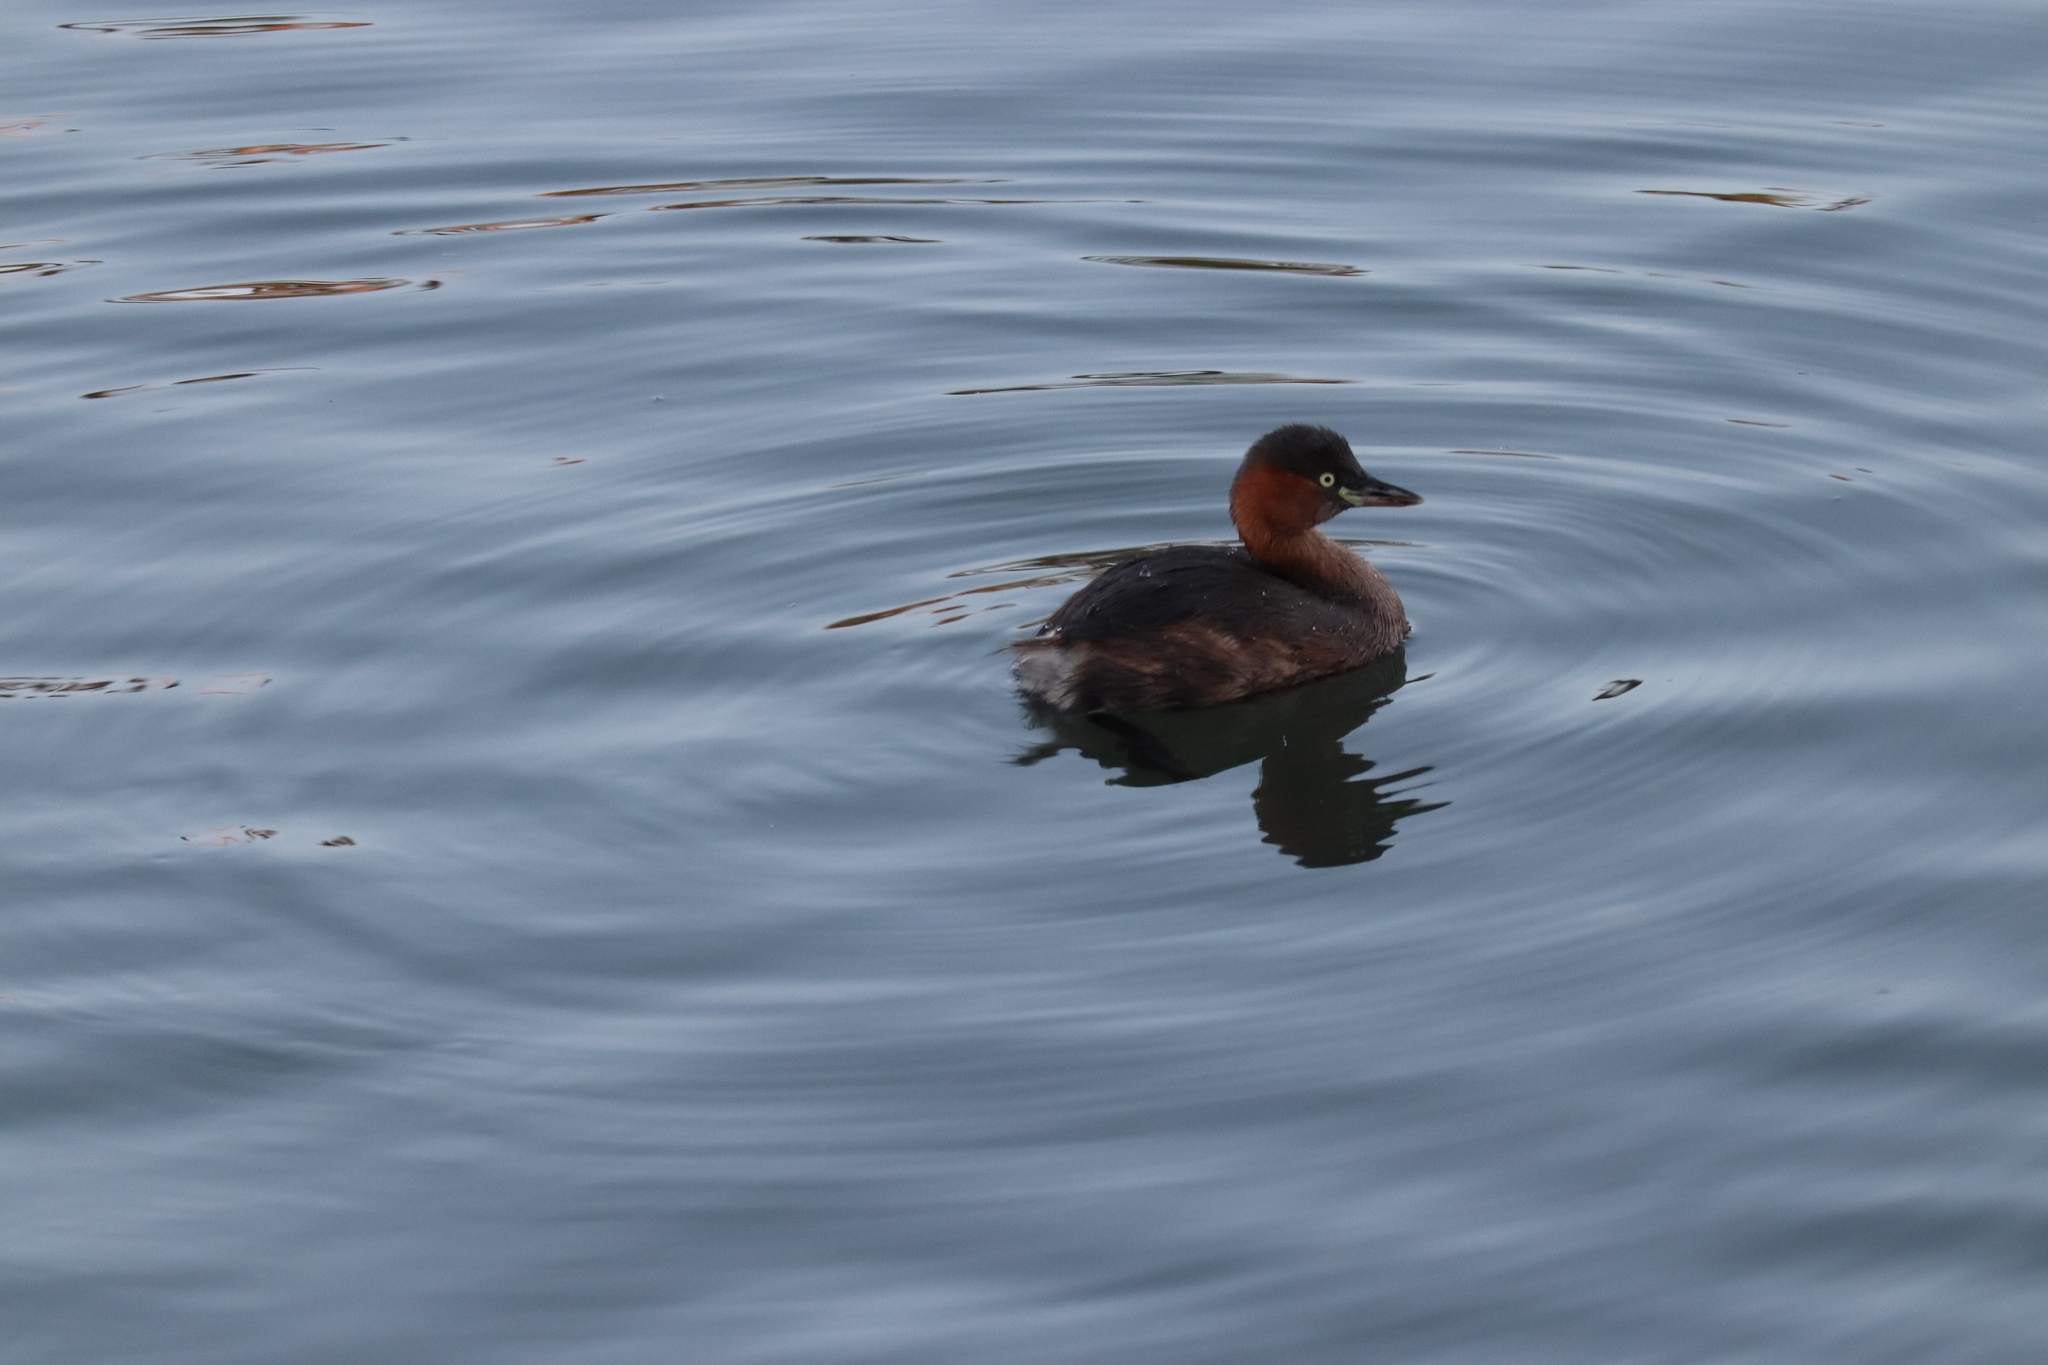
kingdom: Animalia
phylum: Chordata
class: Aves
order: Podicipediformes
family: Podicipedidae
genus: Tachybaptus
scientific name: Tachybaptus ruficollis
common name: Little grebe
